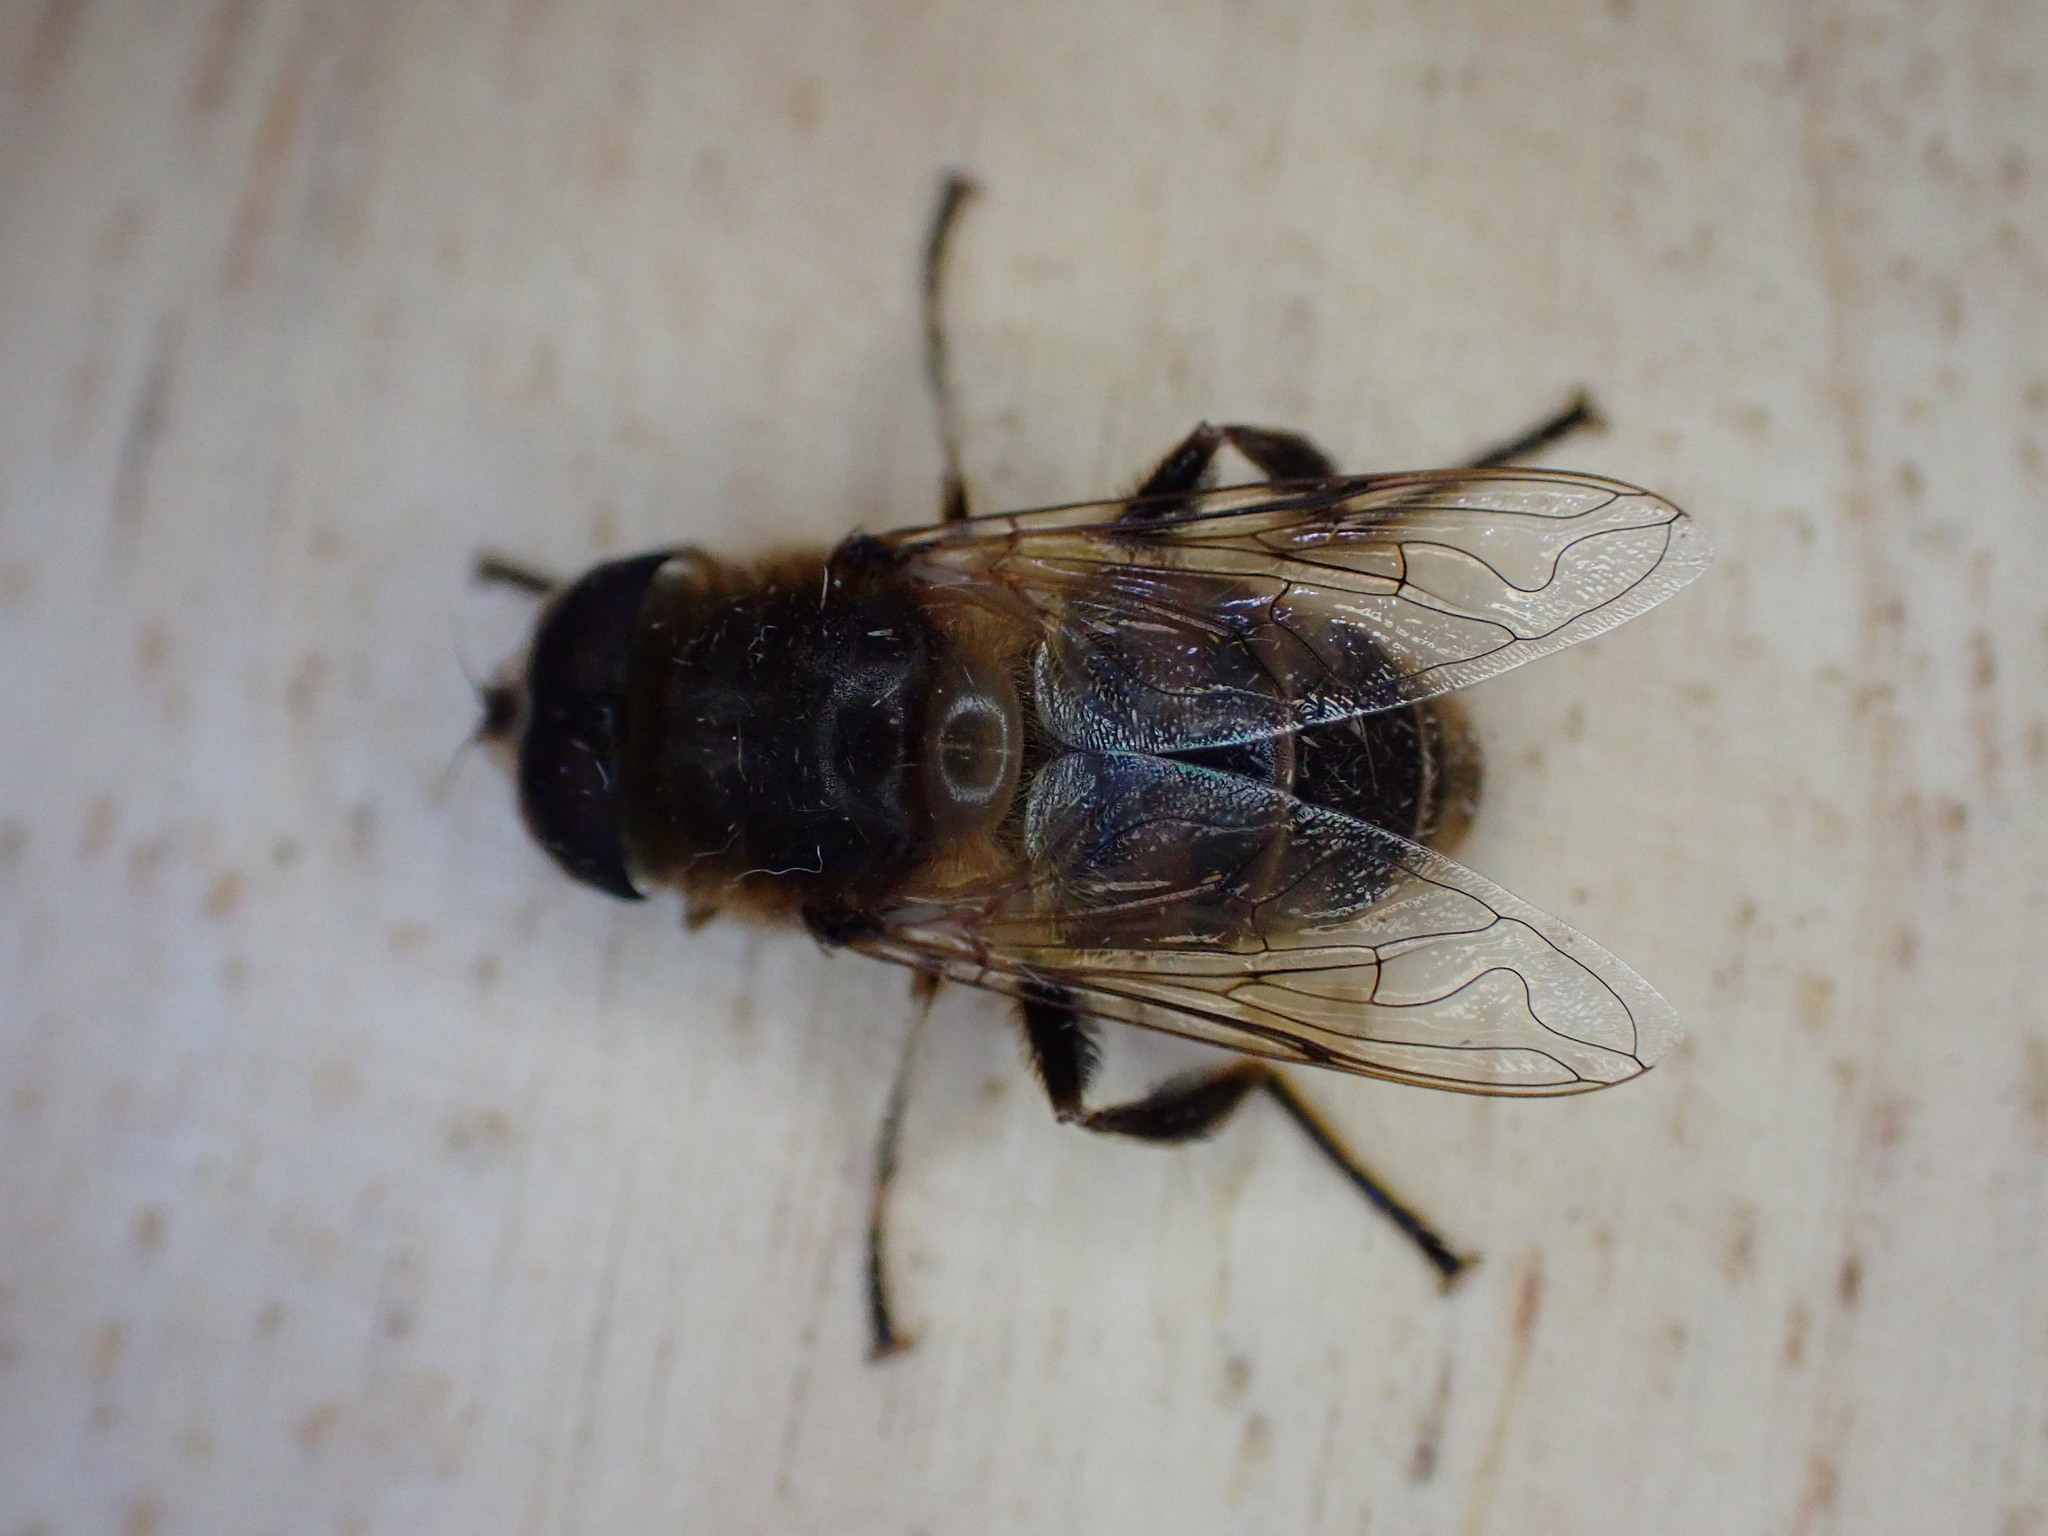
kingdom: Animalia
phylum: Arthropoda
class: Insecta
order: Diptera
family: Syrphidae
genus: Eristalis
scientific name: Eristalis tenax
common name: Drone fly
